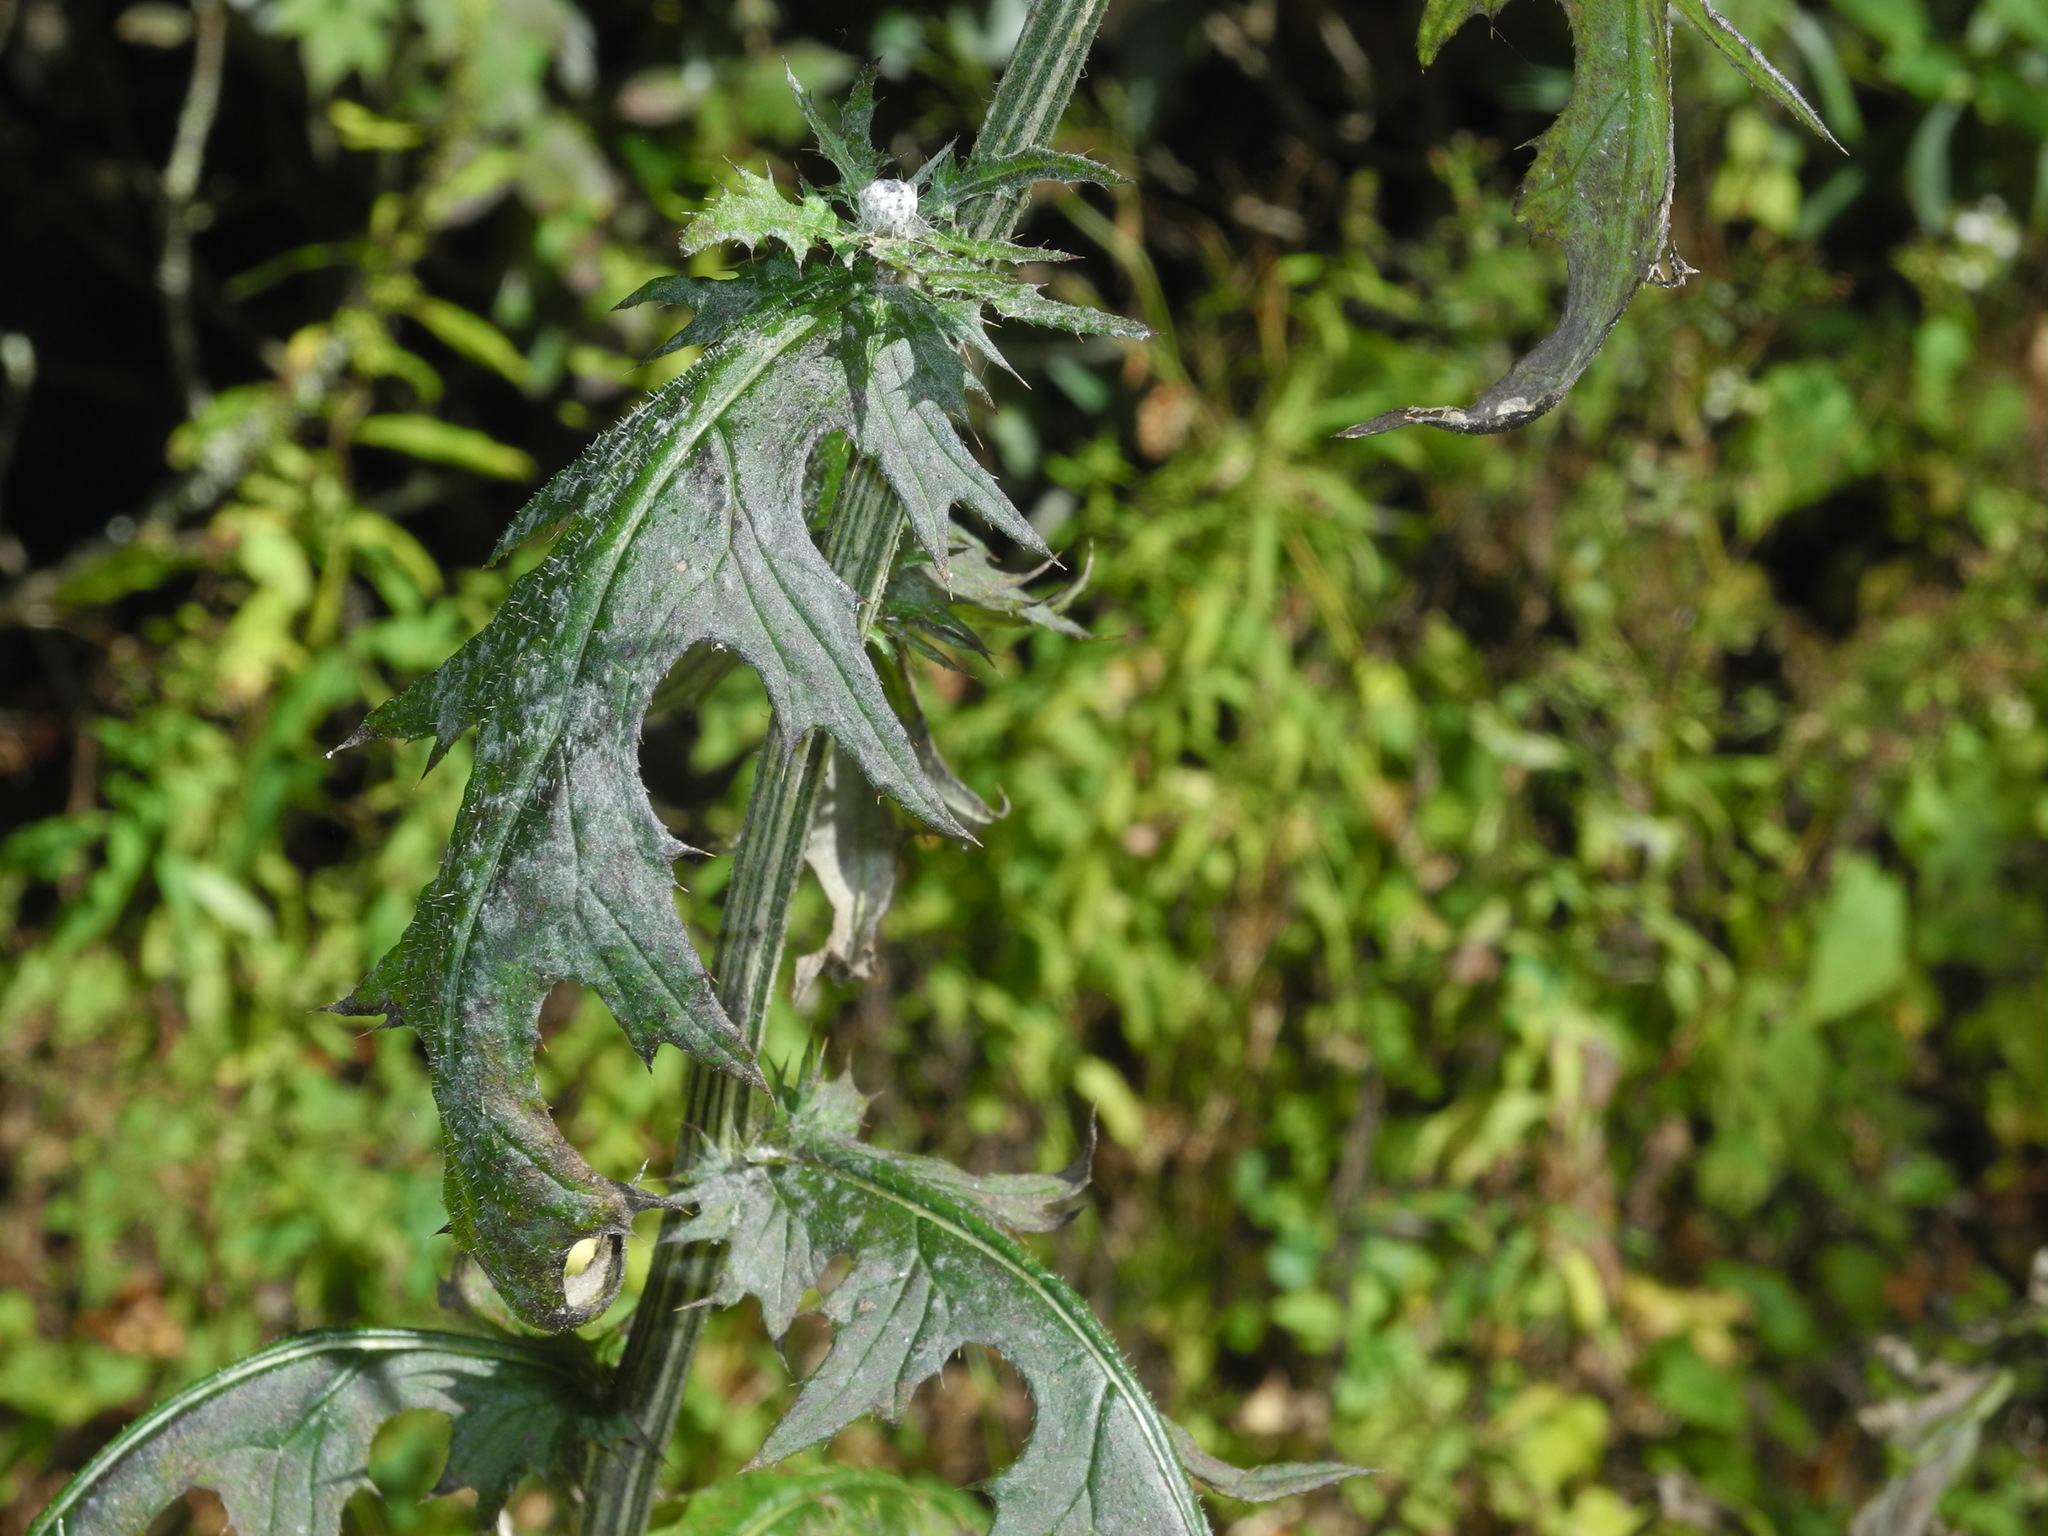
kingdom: Plantae
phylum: Tracheophyta
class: Magnoliopsida
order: Asterales
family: Asteraceae
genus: Cirsium
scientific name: Cirsium muticum
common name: Dunce-nettle
